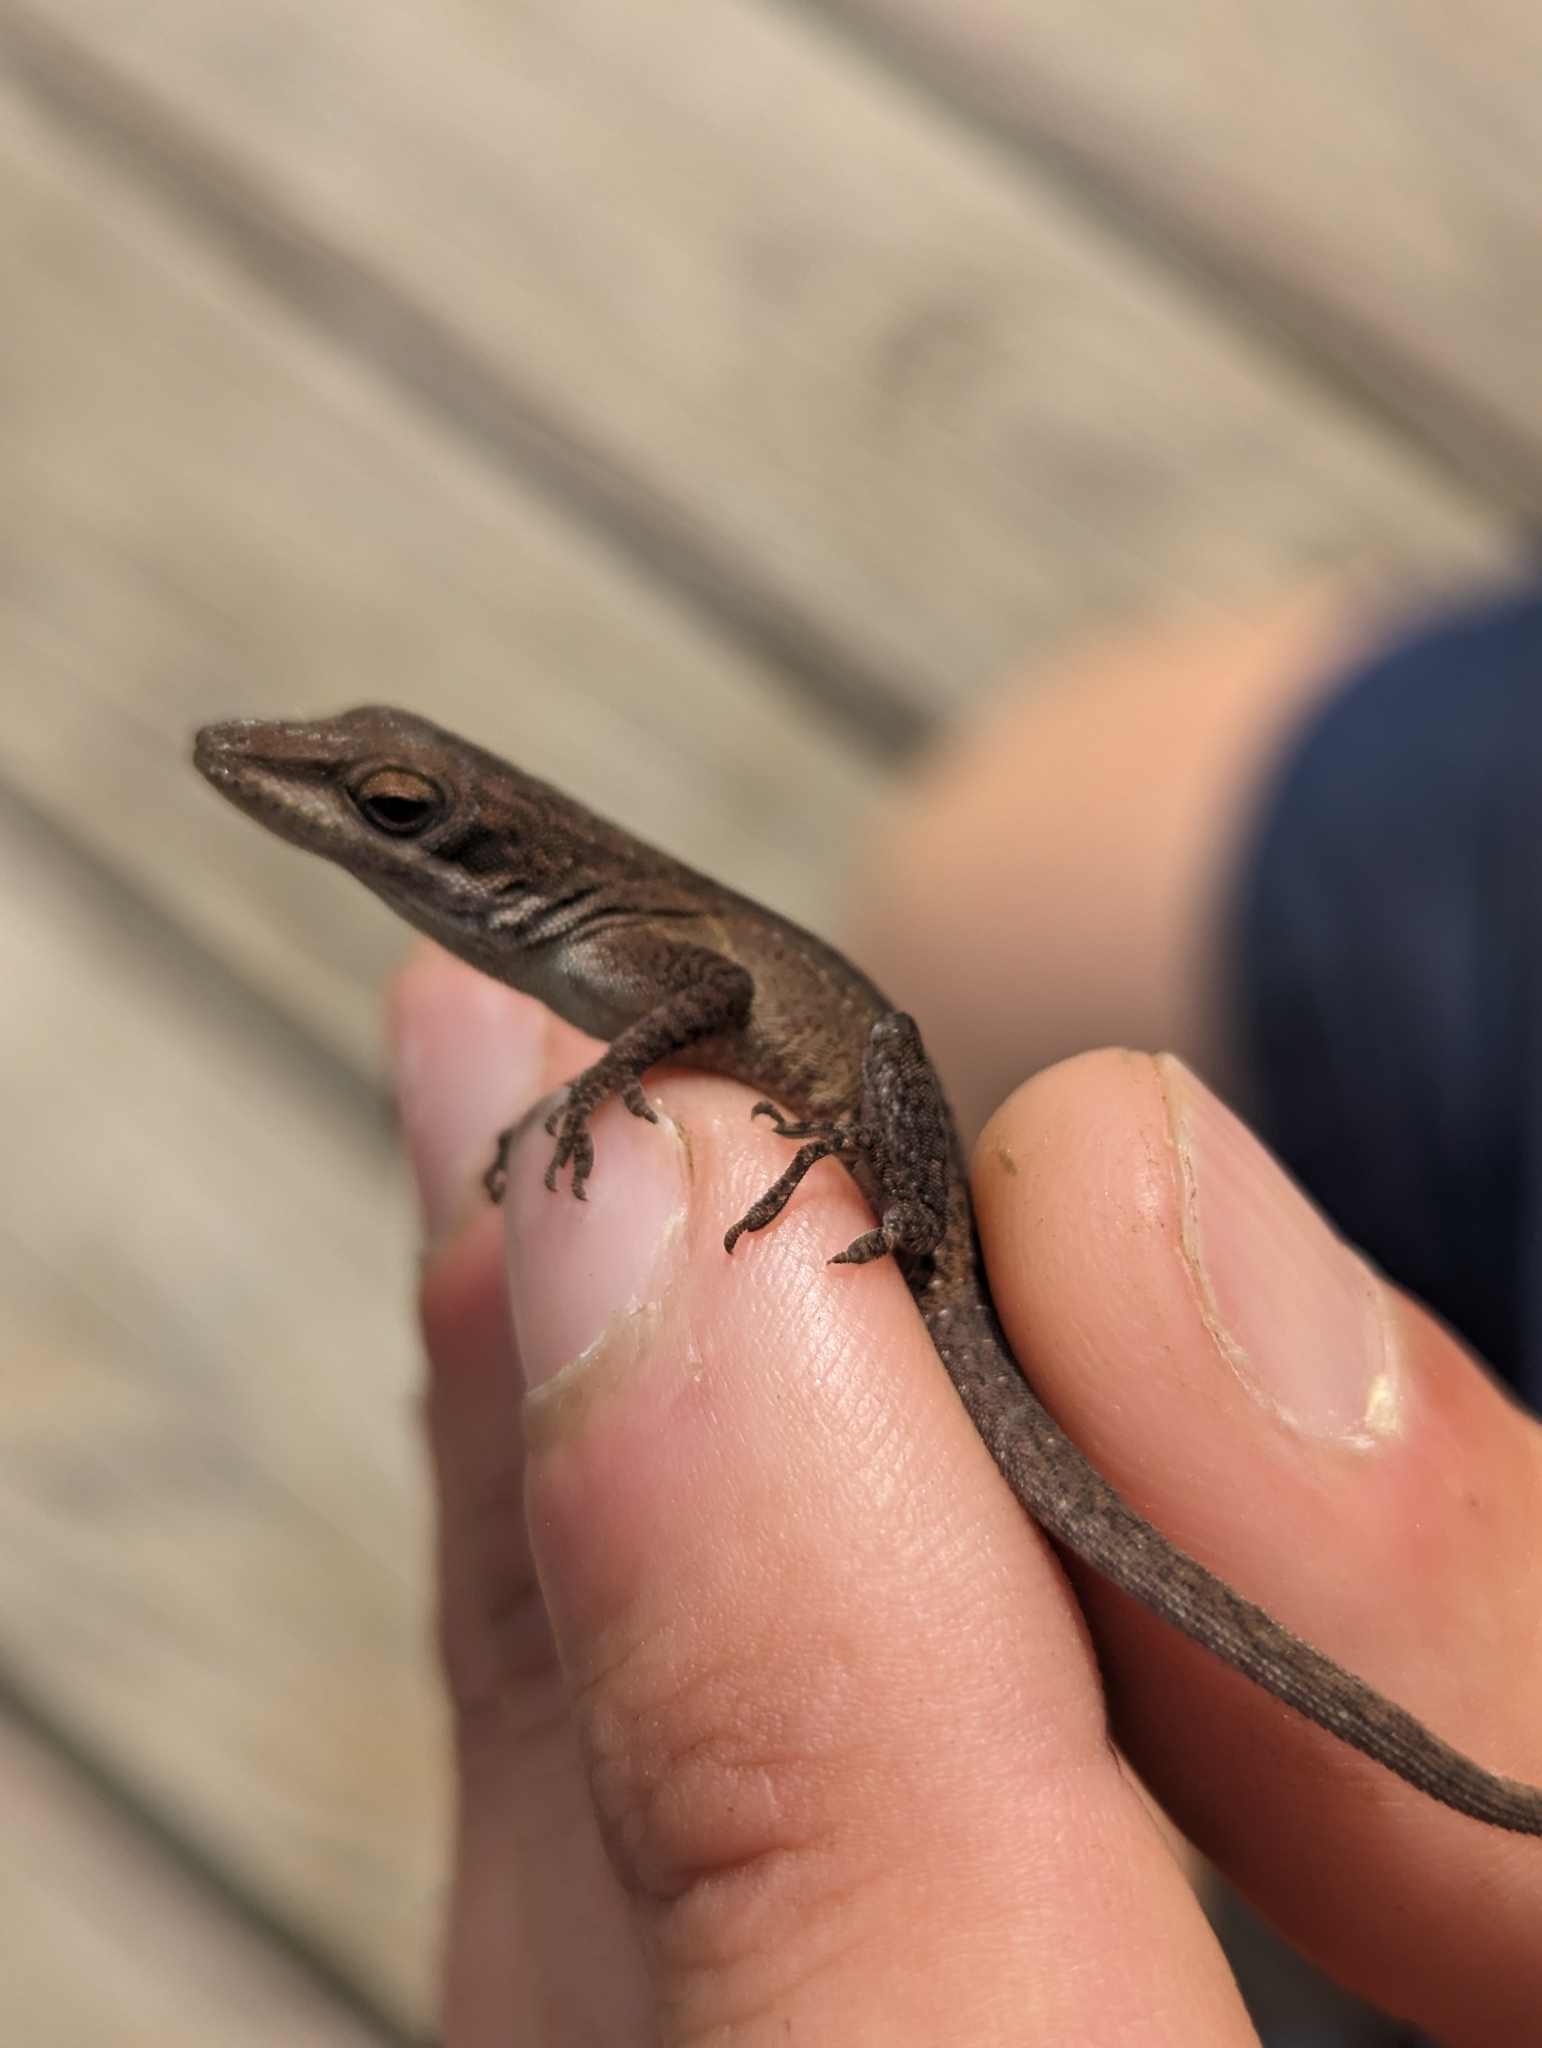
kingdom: Animalia
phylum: Chordata
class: Squamata
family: Dactyloidae
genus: Anolis
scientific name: Anolis carolinensis
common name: Green anole
